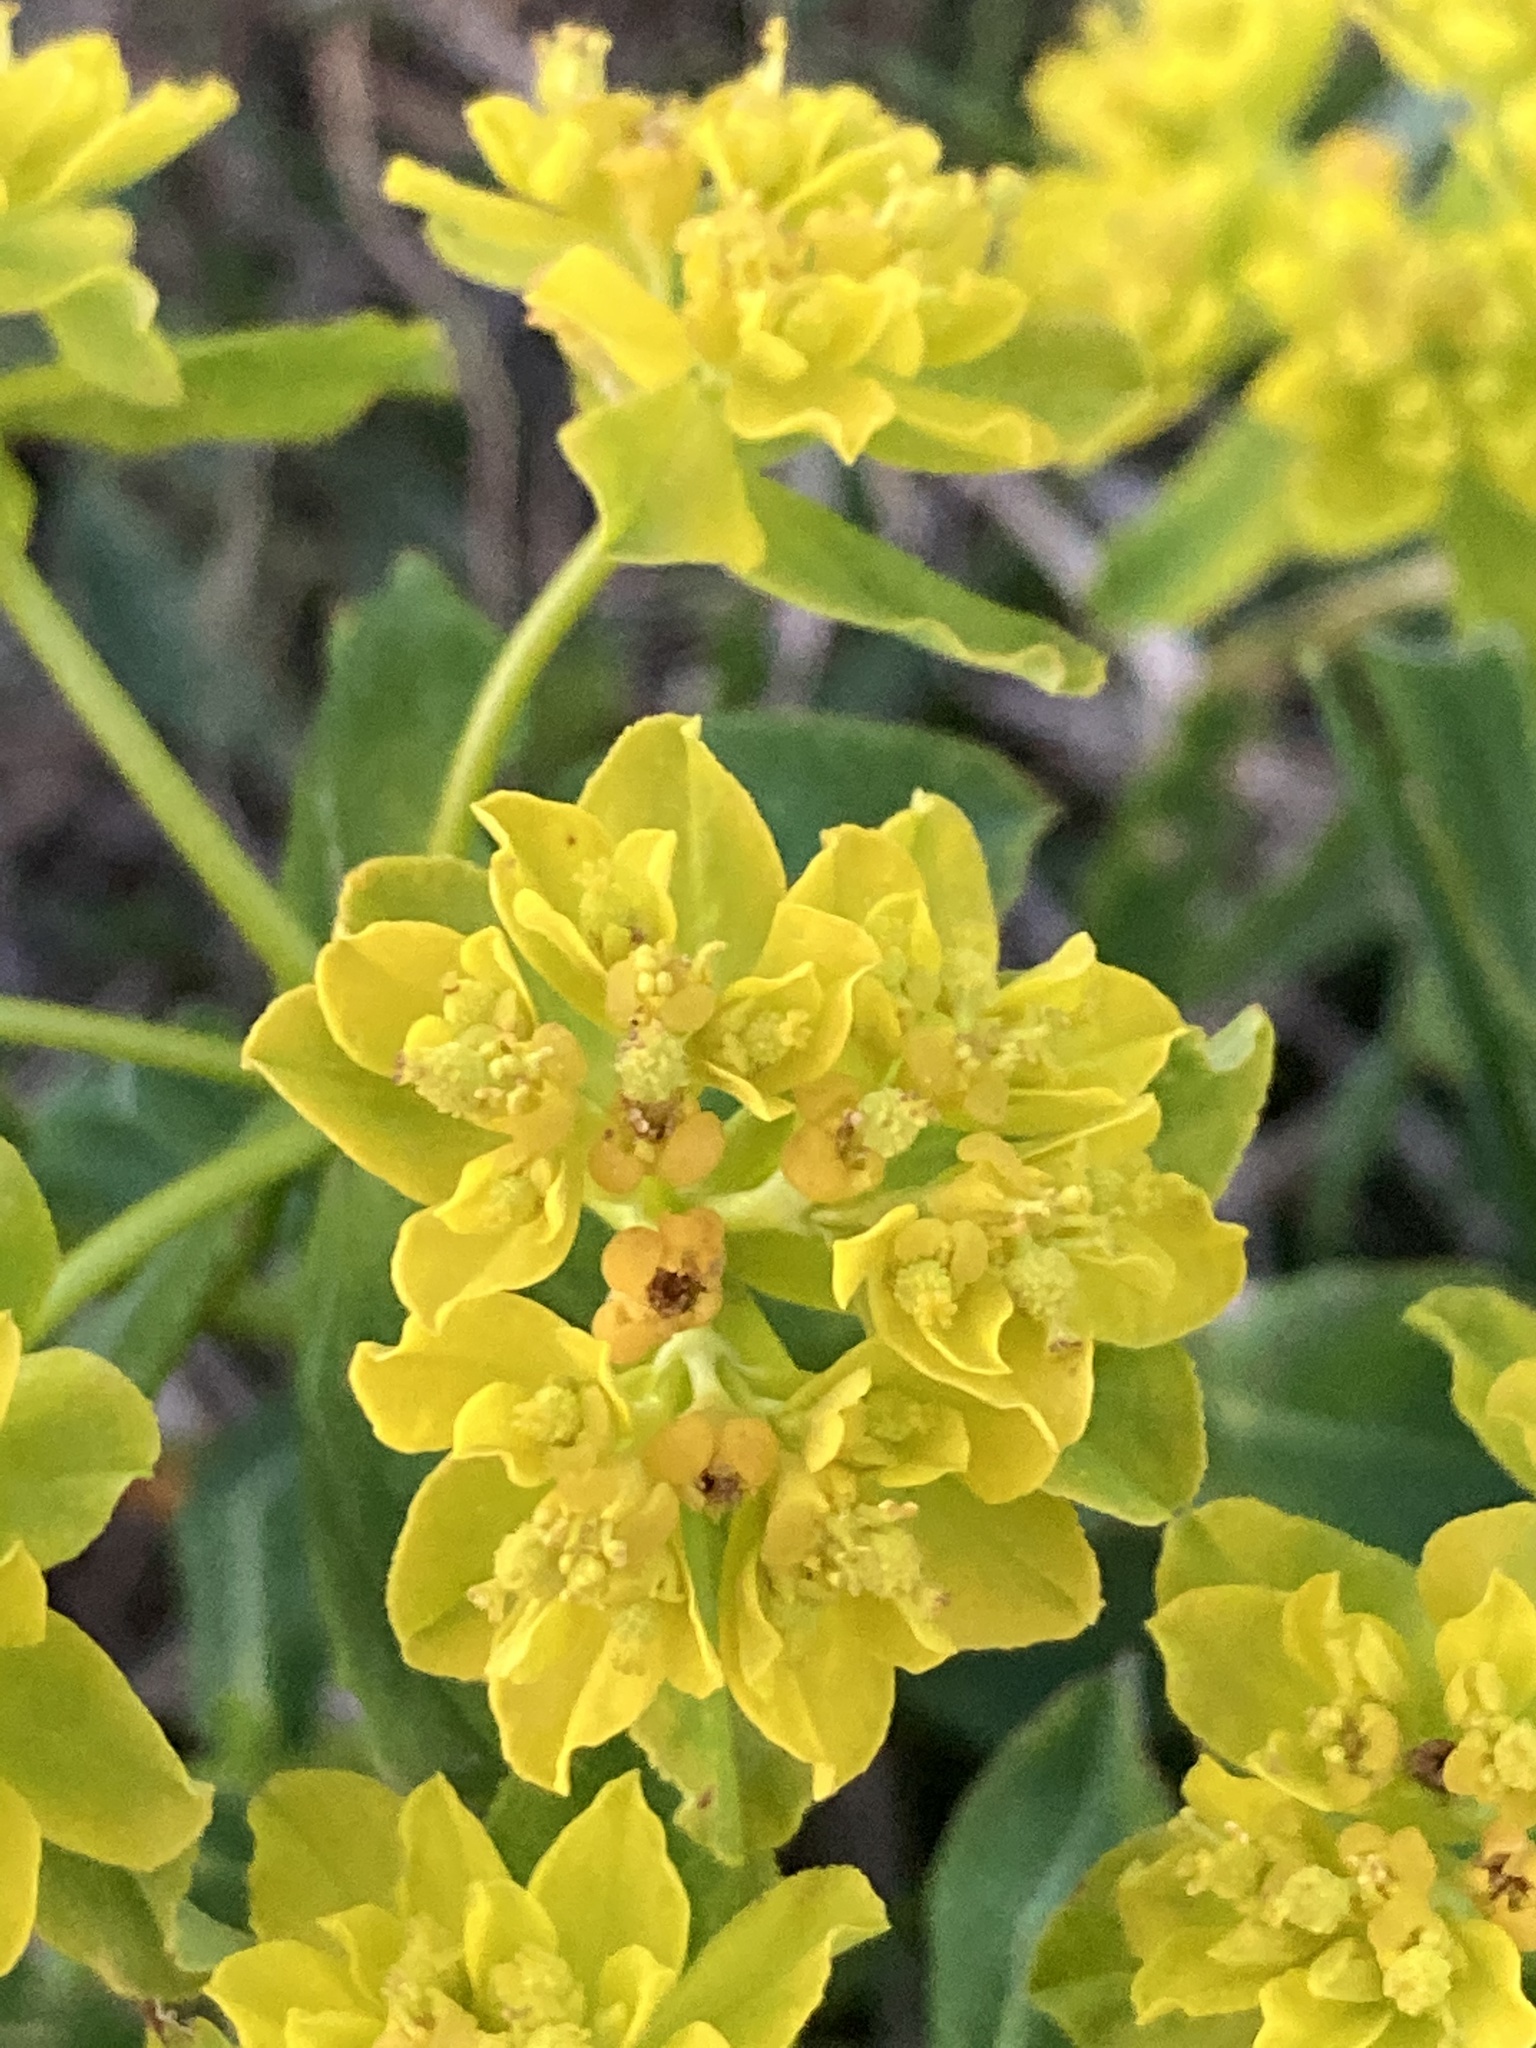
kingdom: Plantae
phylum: Tracheophyta
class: Magnoliopsida
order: Malpighiales
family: Euphorbiaceae
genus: Euphorbia
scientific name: Euphorbia verrucosa
